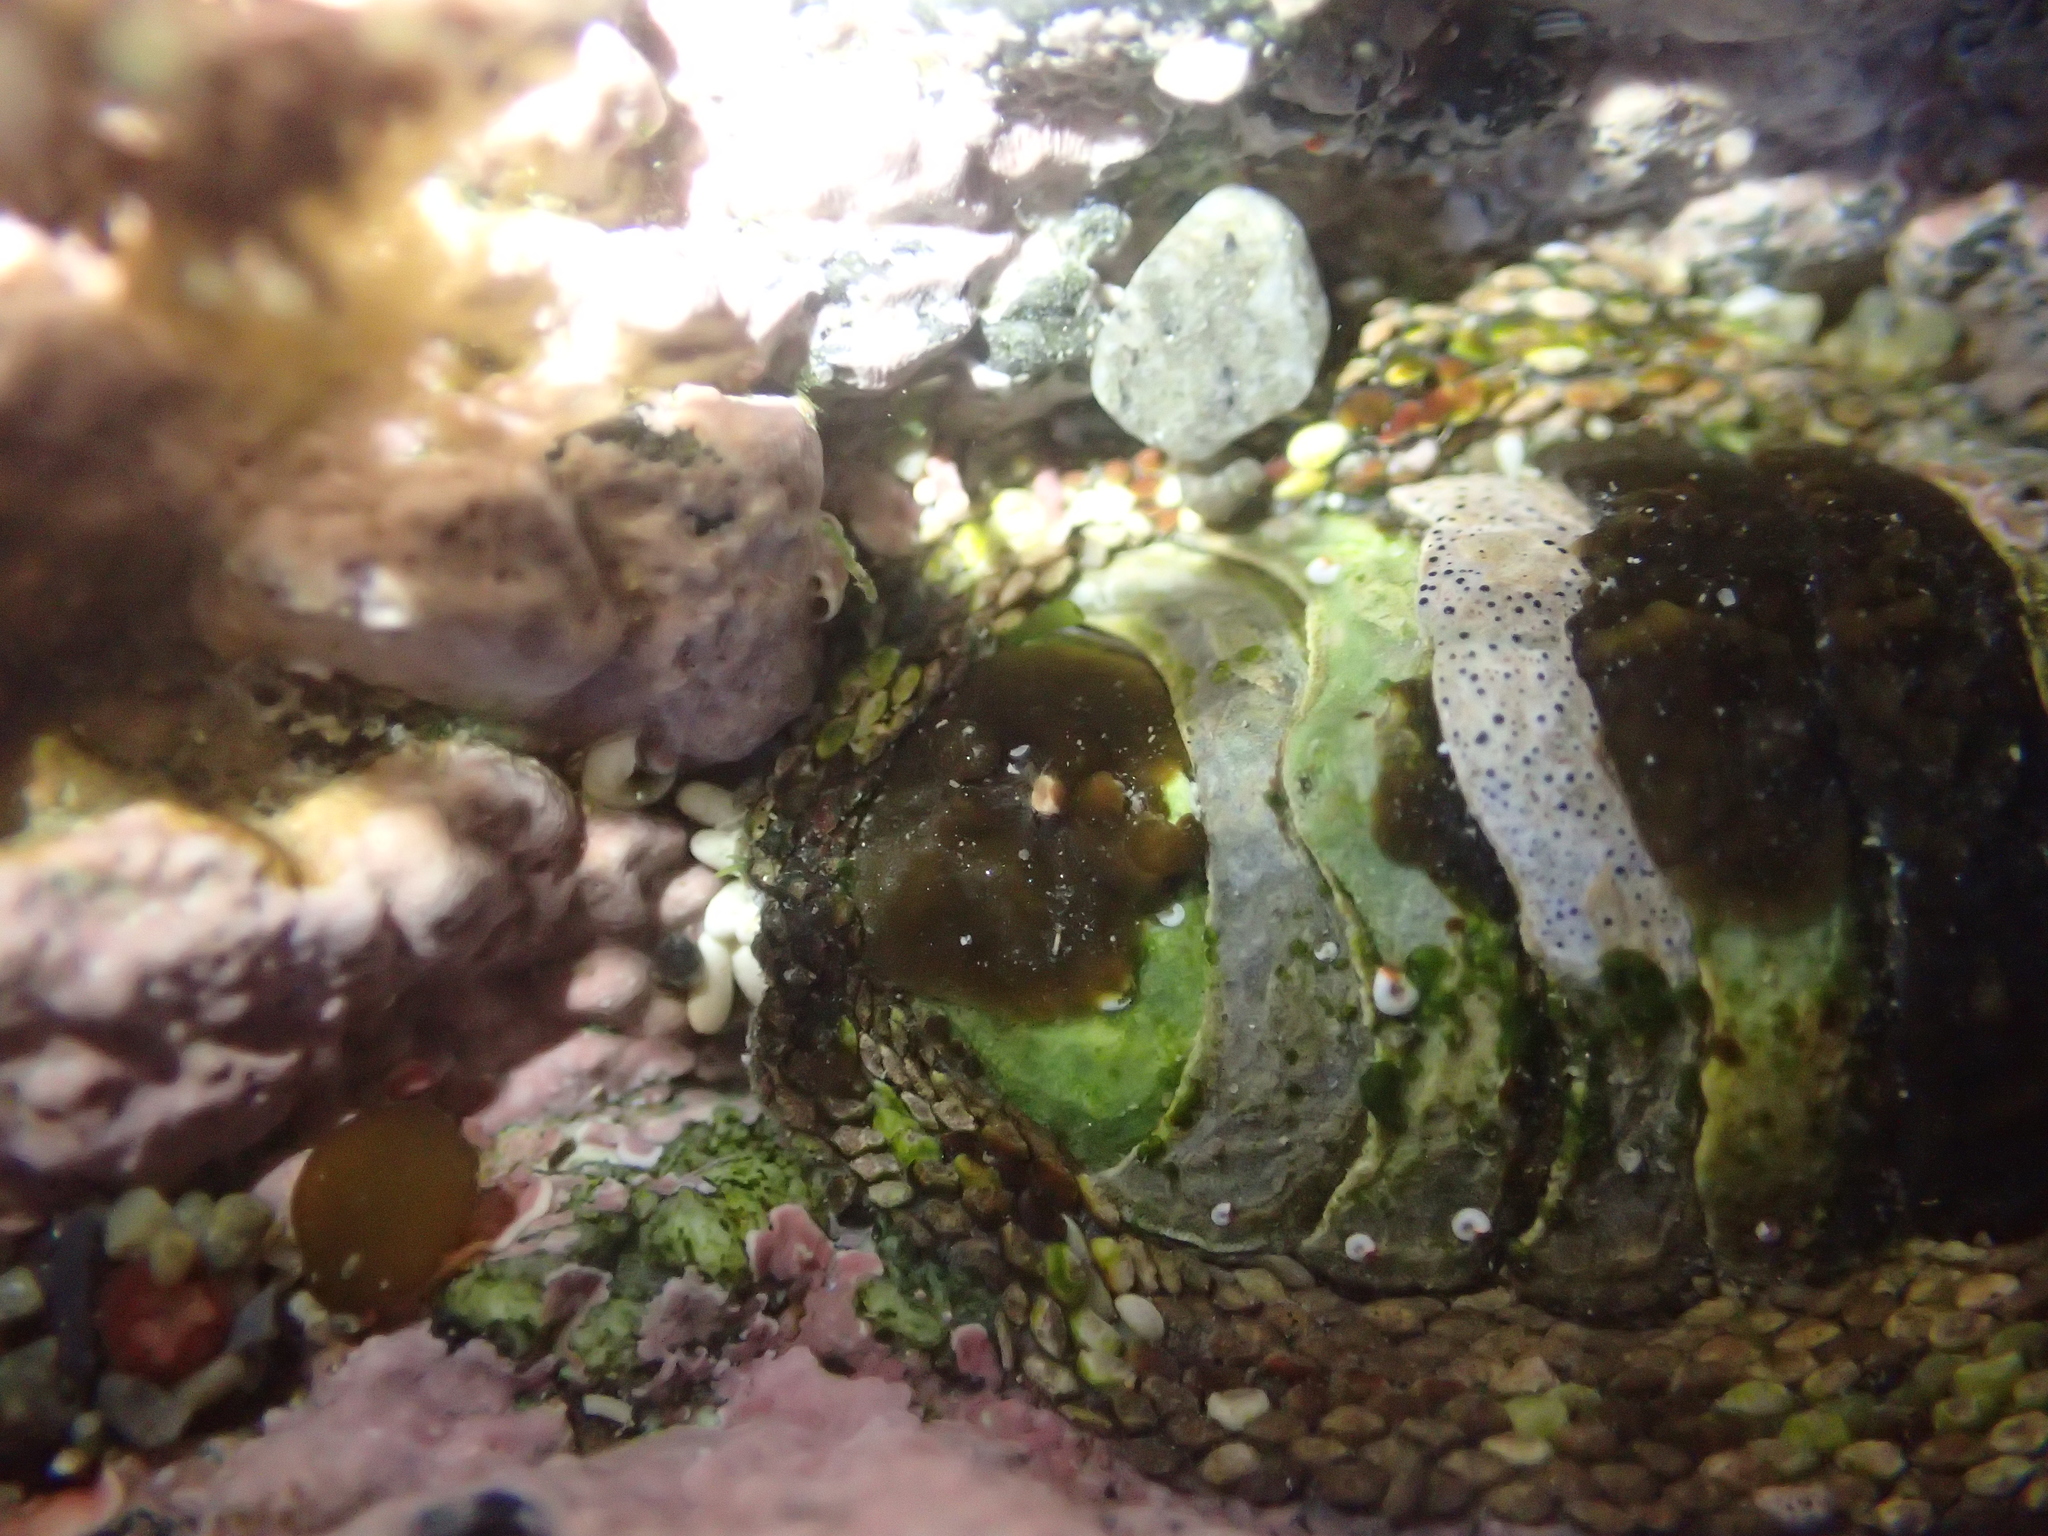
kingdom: Animalia
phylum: Mollusca
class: Polyplacophora
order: Chitonida
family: Chitonidae
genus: Sypharochiton
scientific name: Sypharochiton pelliserpentis
